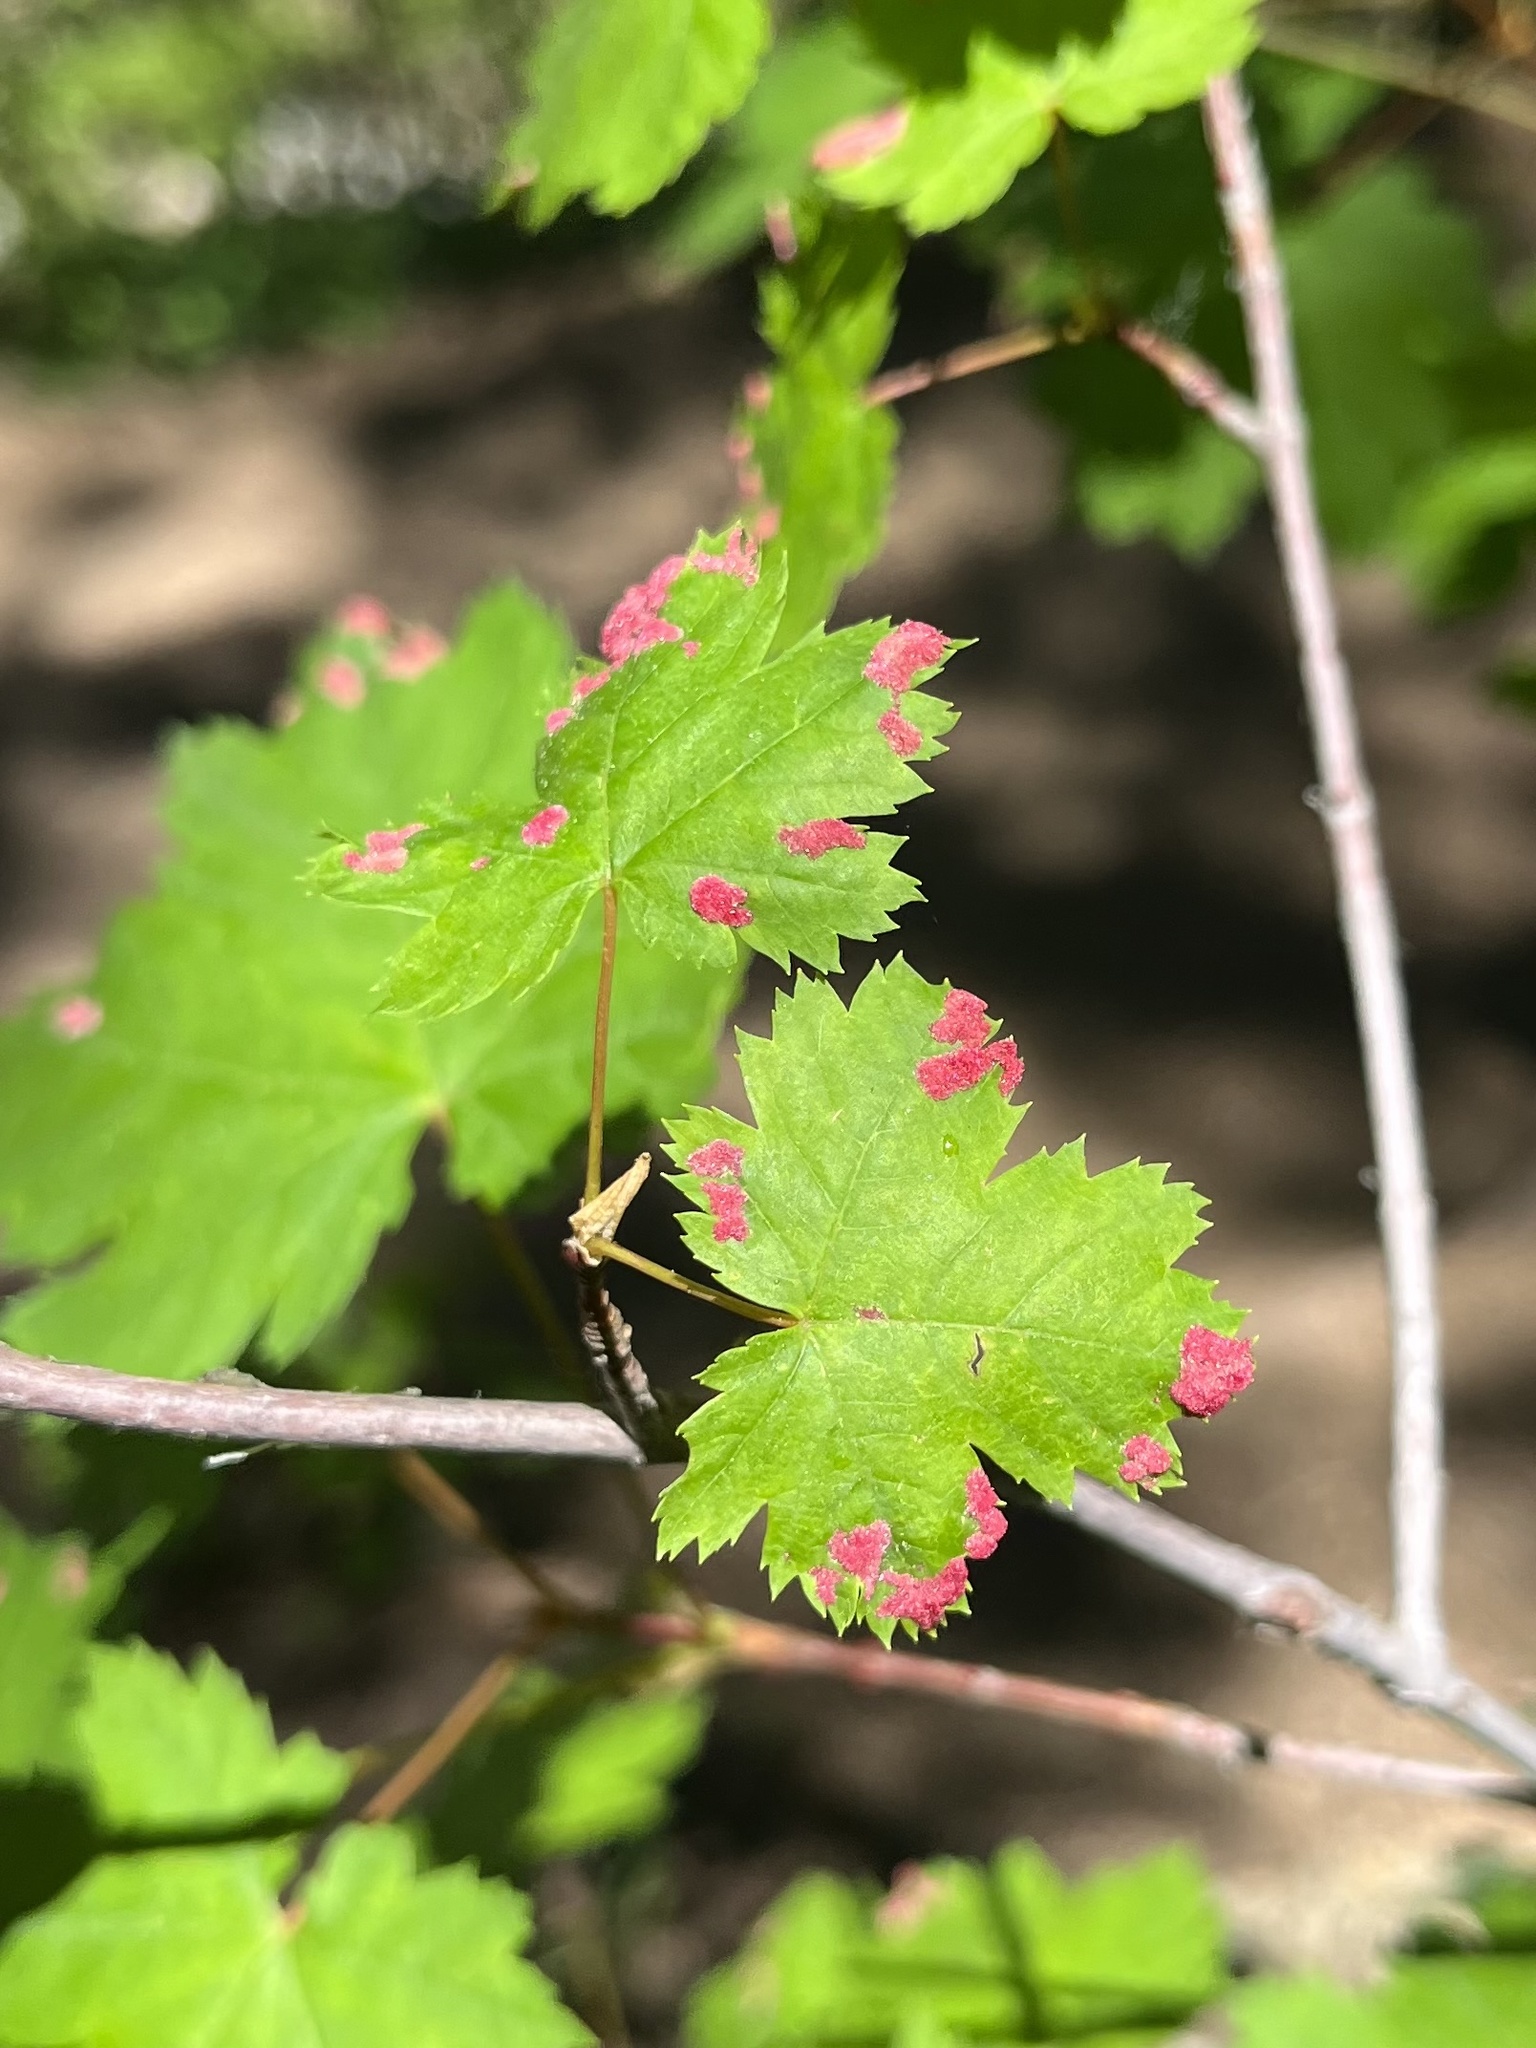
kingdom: Animalia
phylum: Arthropoda
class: Arachnida
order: Trombidiformes
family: Eriophyidae
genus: Aceria
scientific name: Aceria
